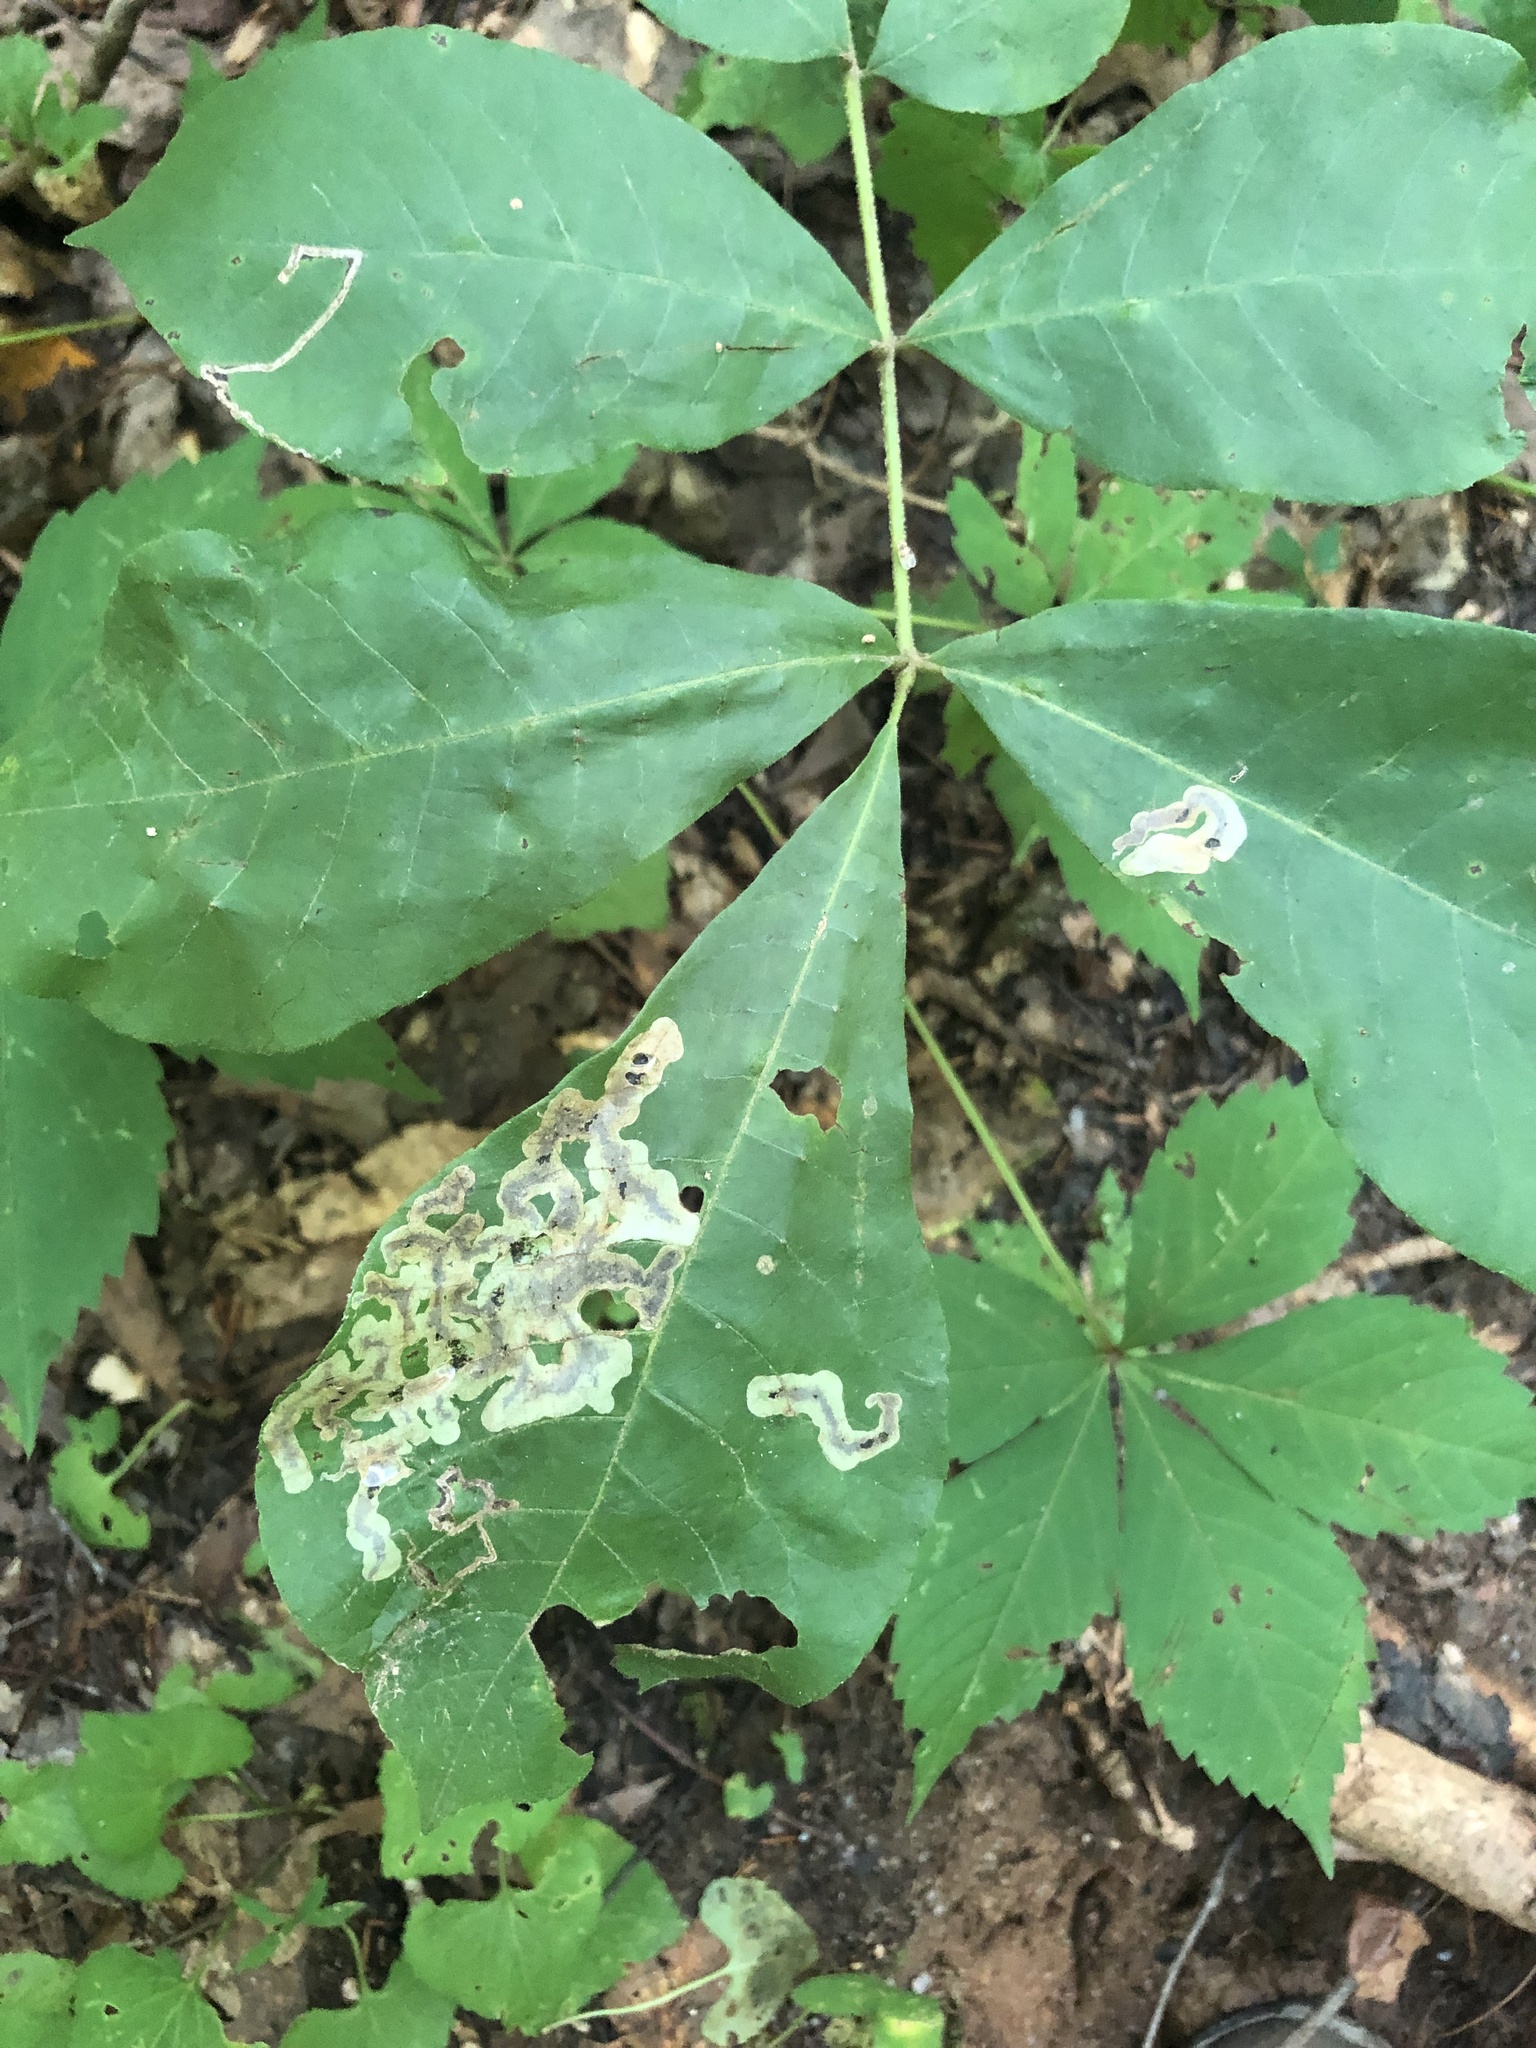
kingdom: Animalia
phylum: Arthropoda
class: Insecta
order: Lepidoptera
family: Gracillariidae
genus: Cameraria
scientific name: Cameraria caryaefoliella
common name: Pecan leafminer moth
